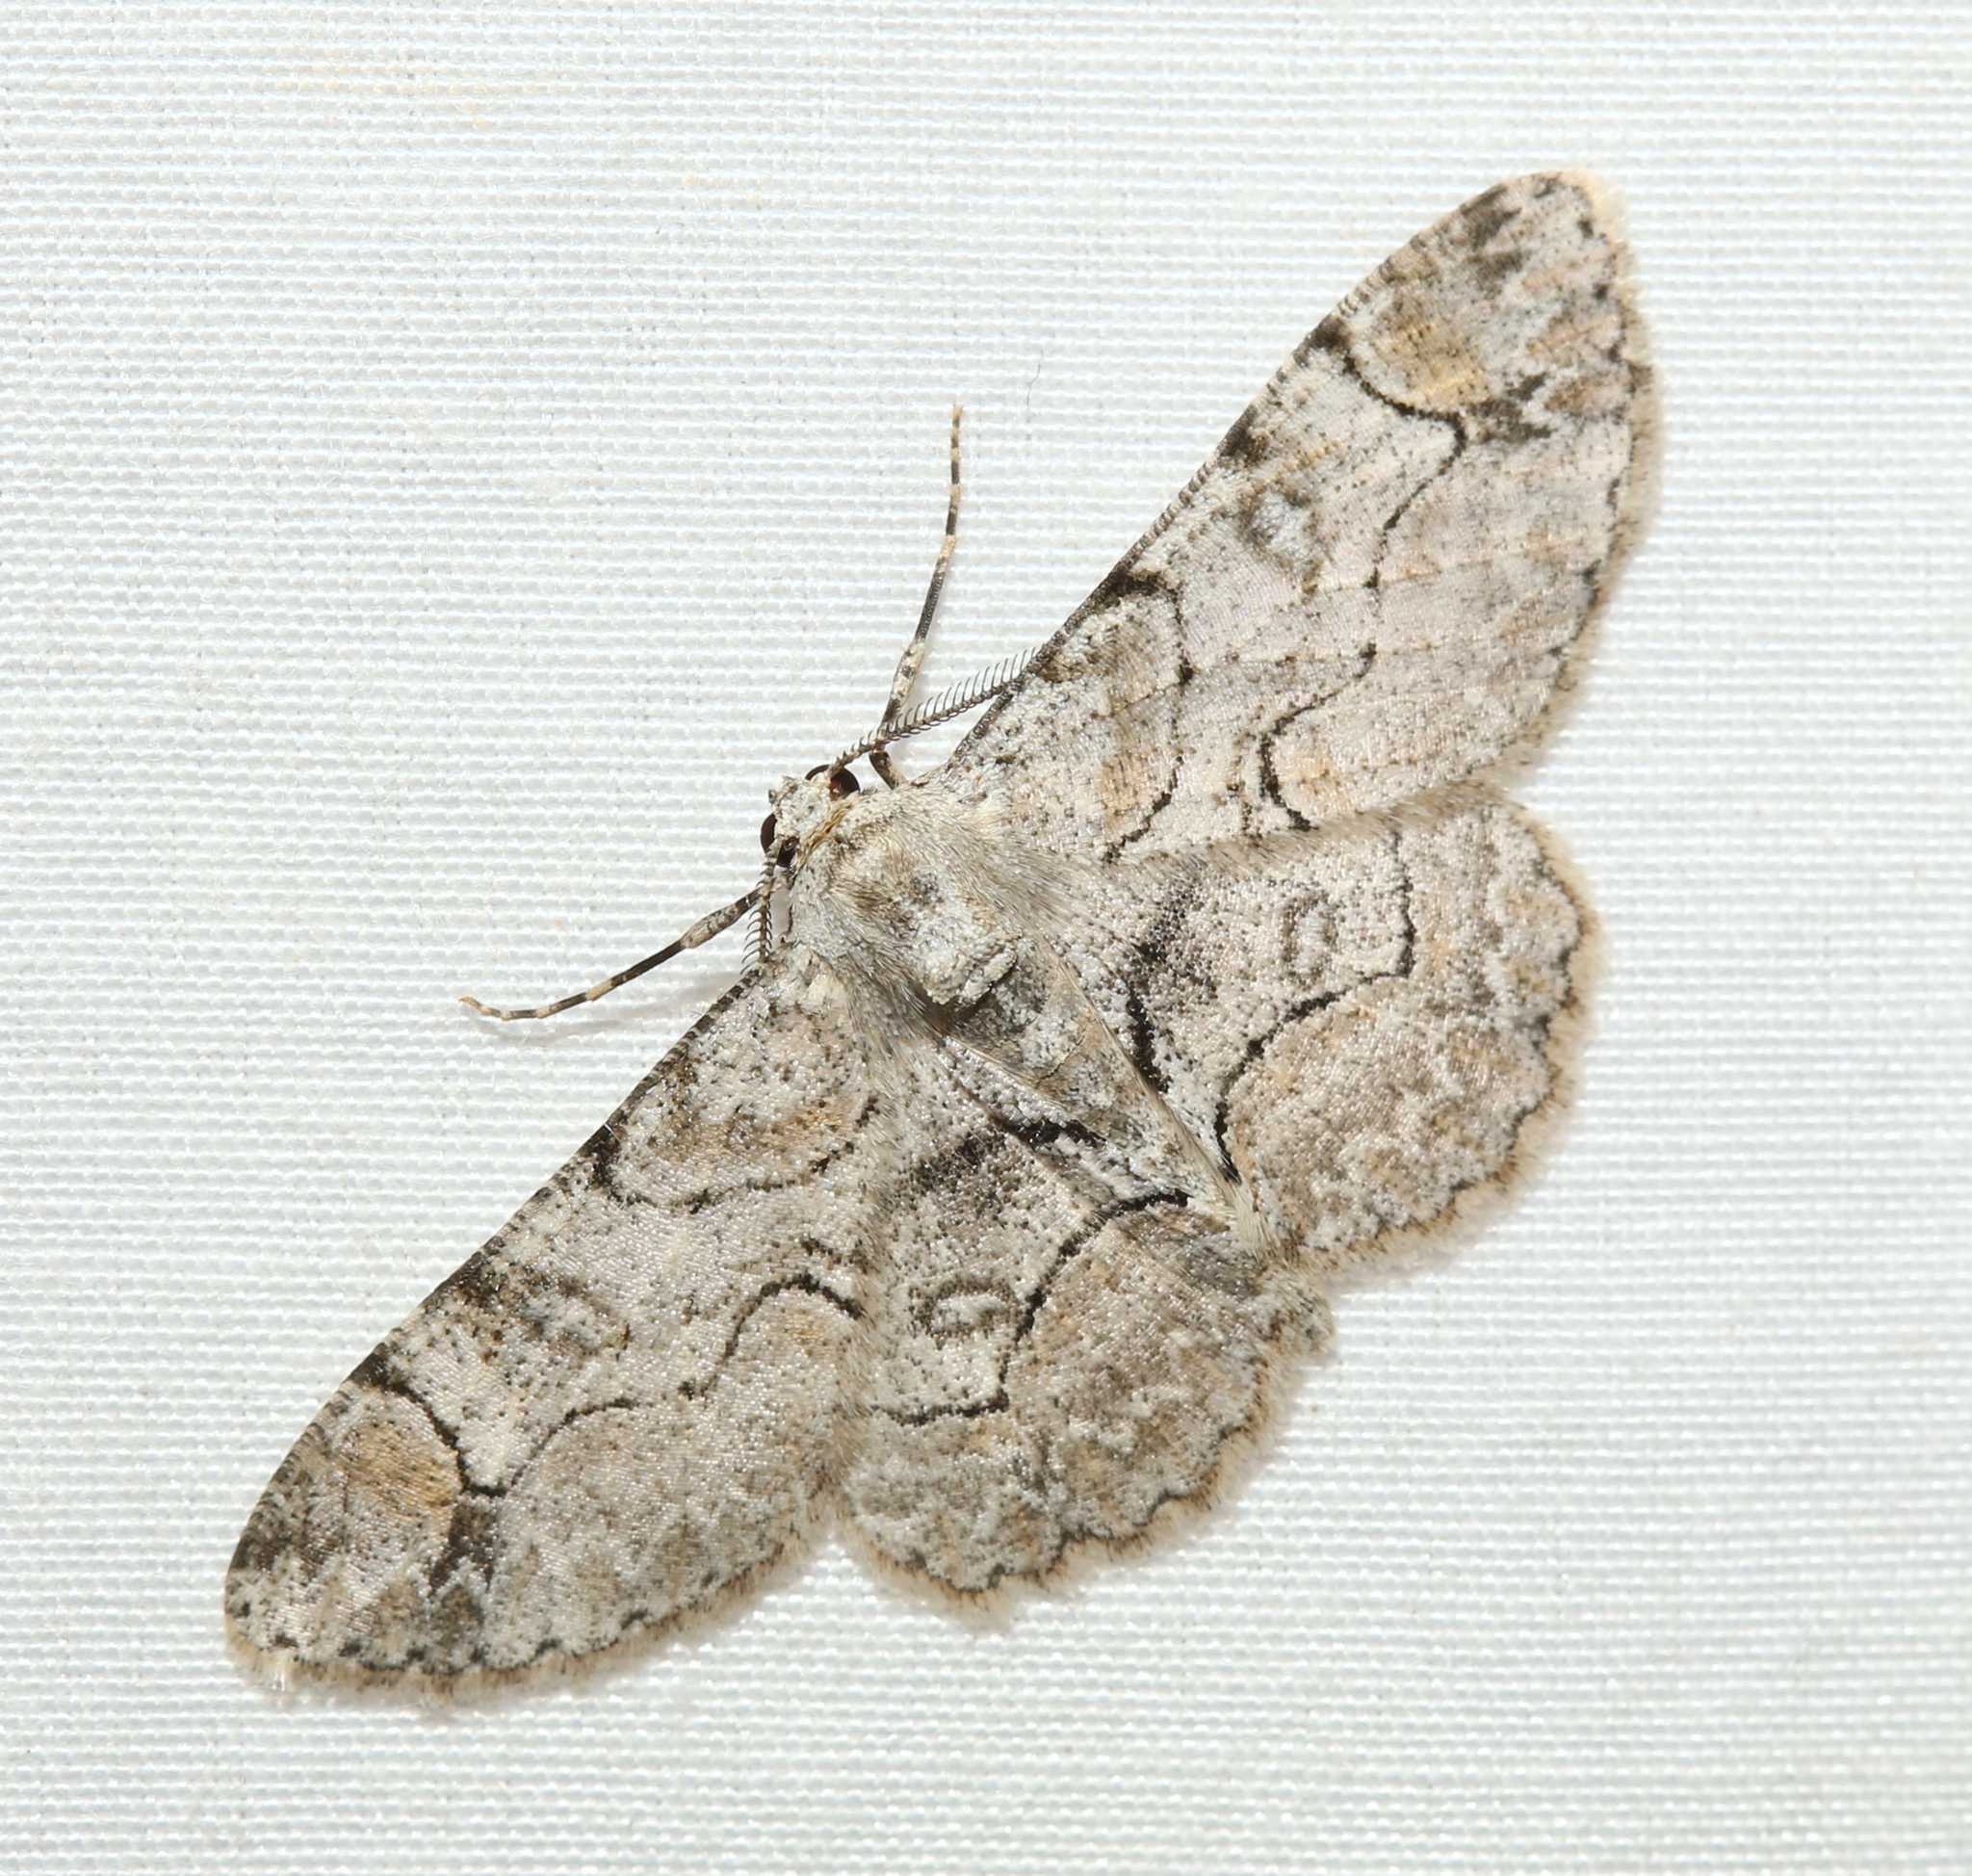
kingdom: Animalia
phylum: Arthropoda
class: Insecta
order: Lepidoptera
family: Geometridae
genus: Iridopsis
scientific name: Iridopsis larvaria
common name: Bent-line gray
